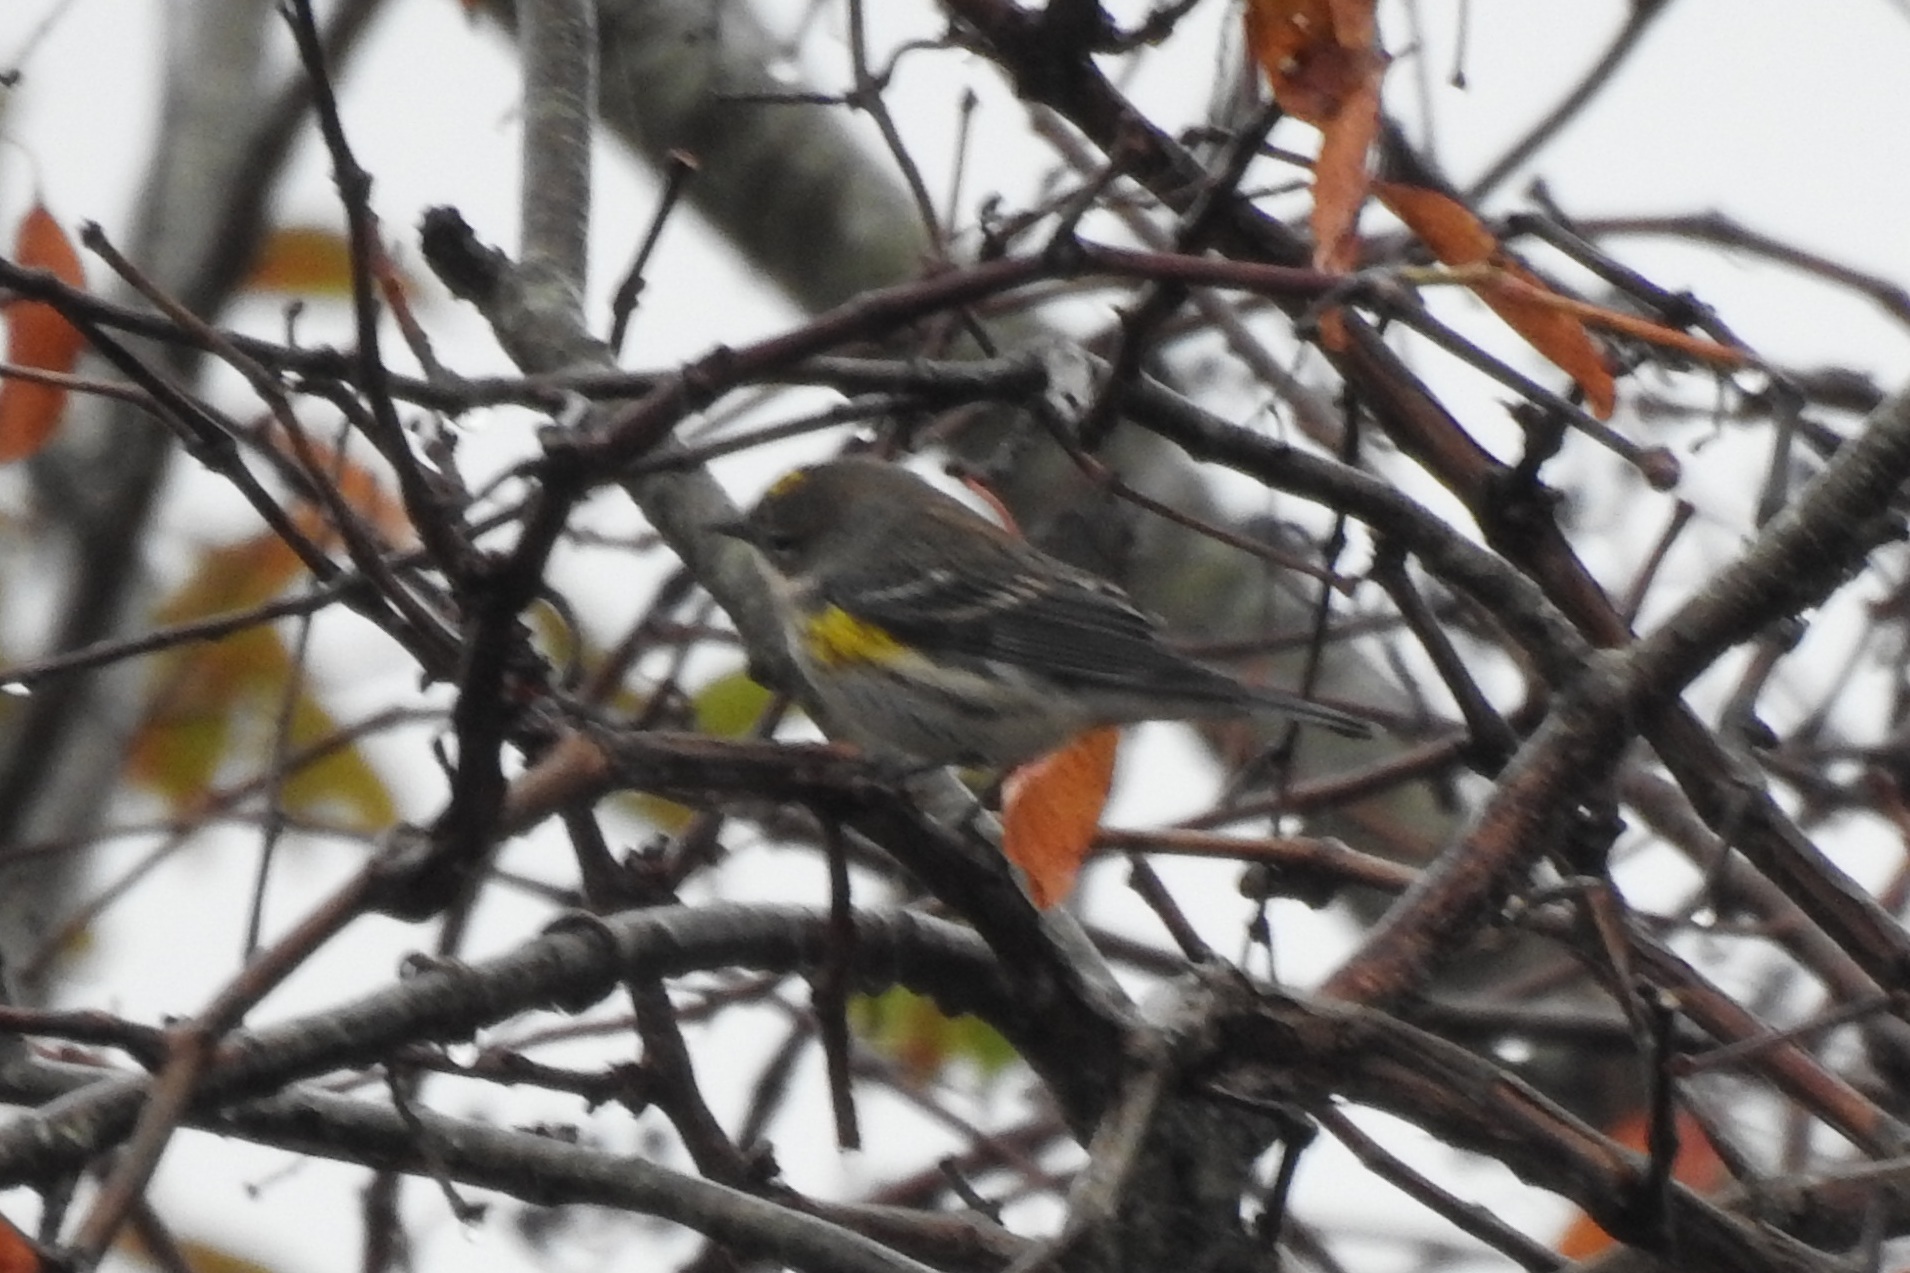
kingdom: Animalia
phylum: Chordata
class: Aves
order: Passeriformes
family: Parulidae
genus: Setophaga
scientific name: Setophaga coronata
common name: Myrtle warbler
